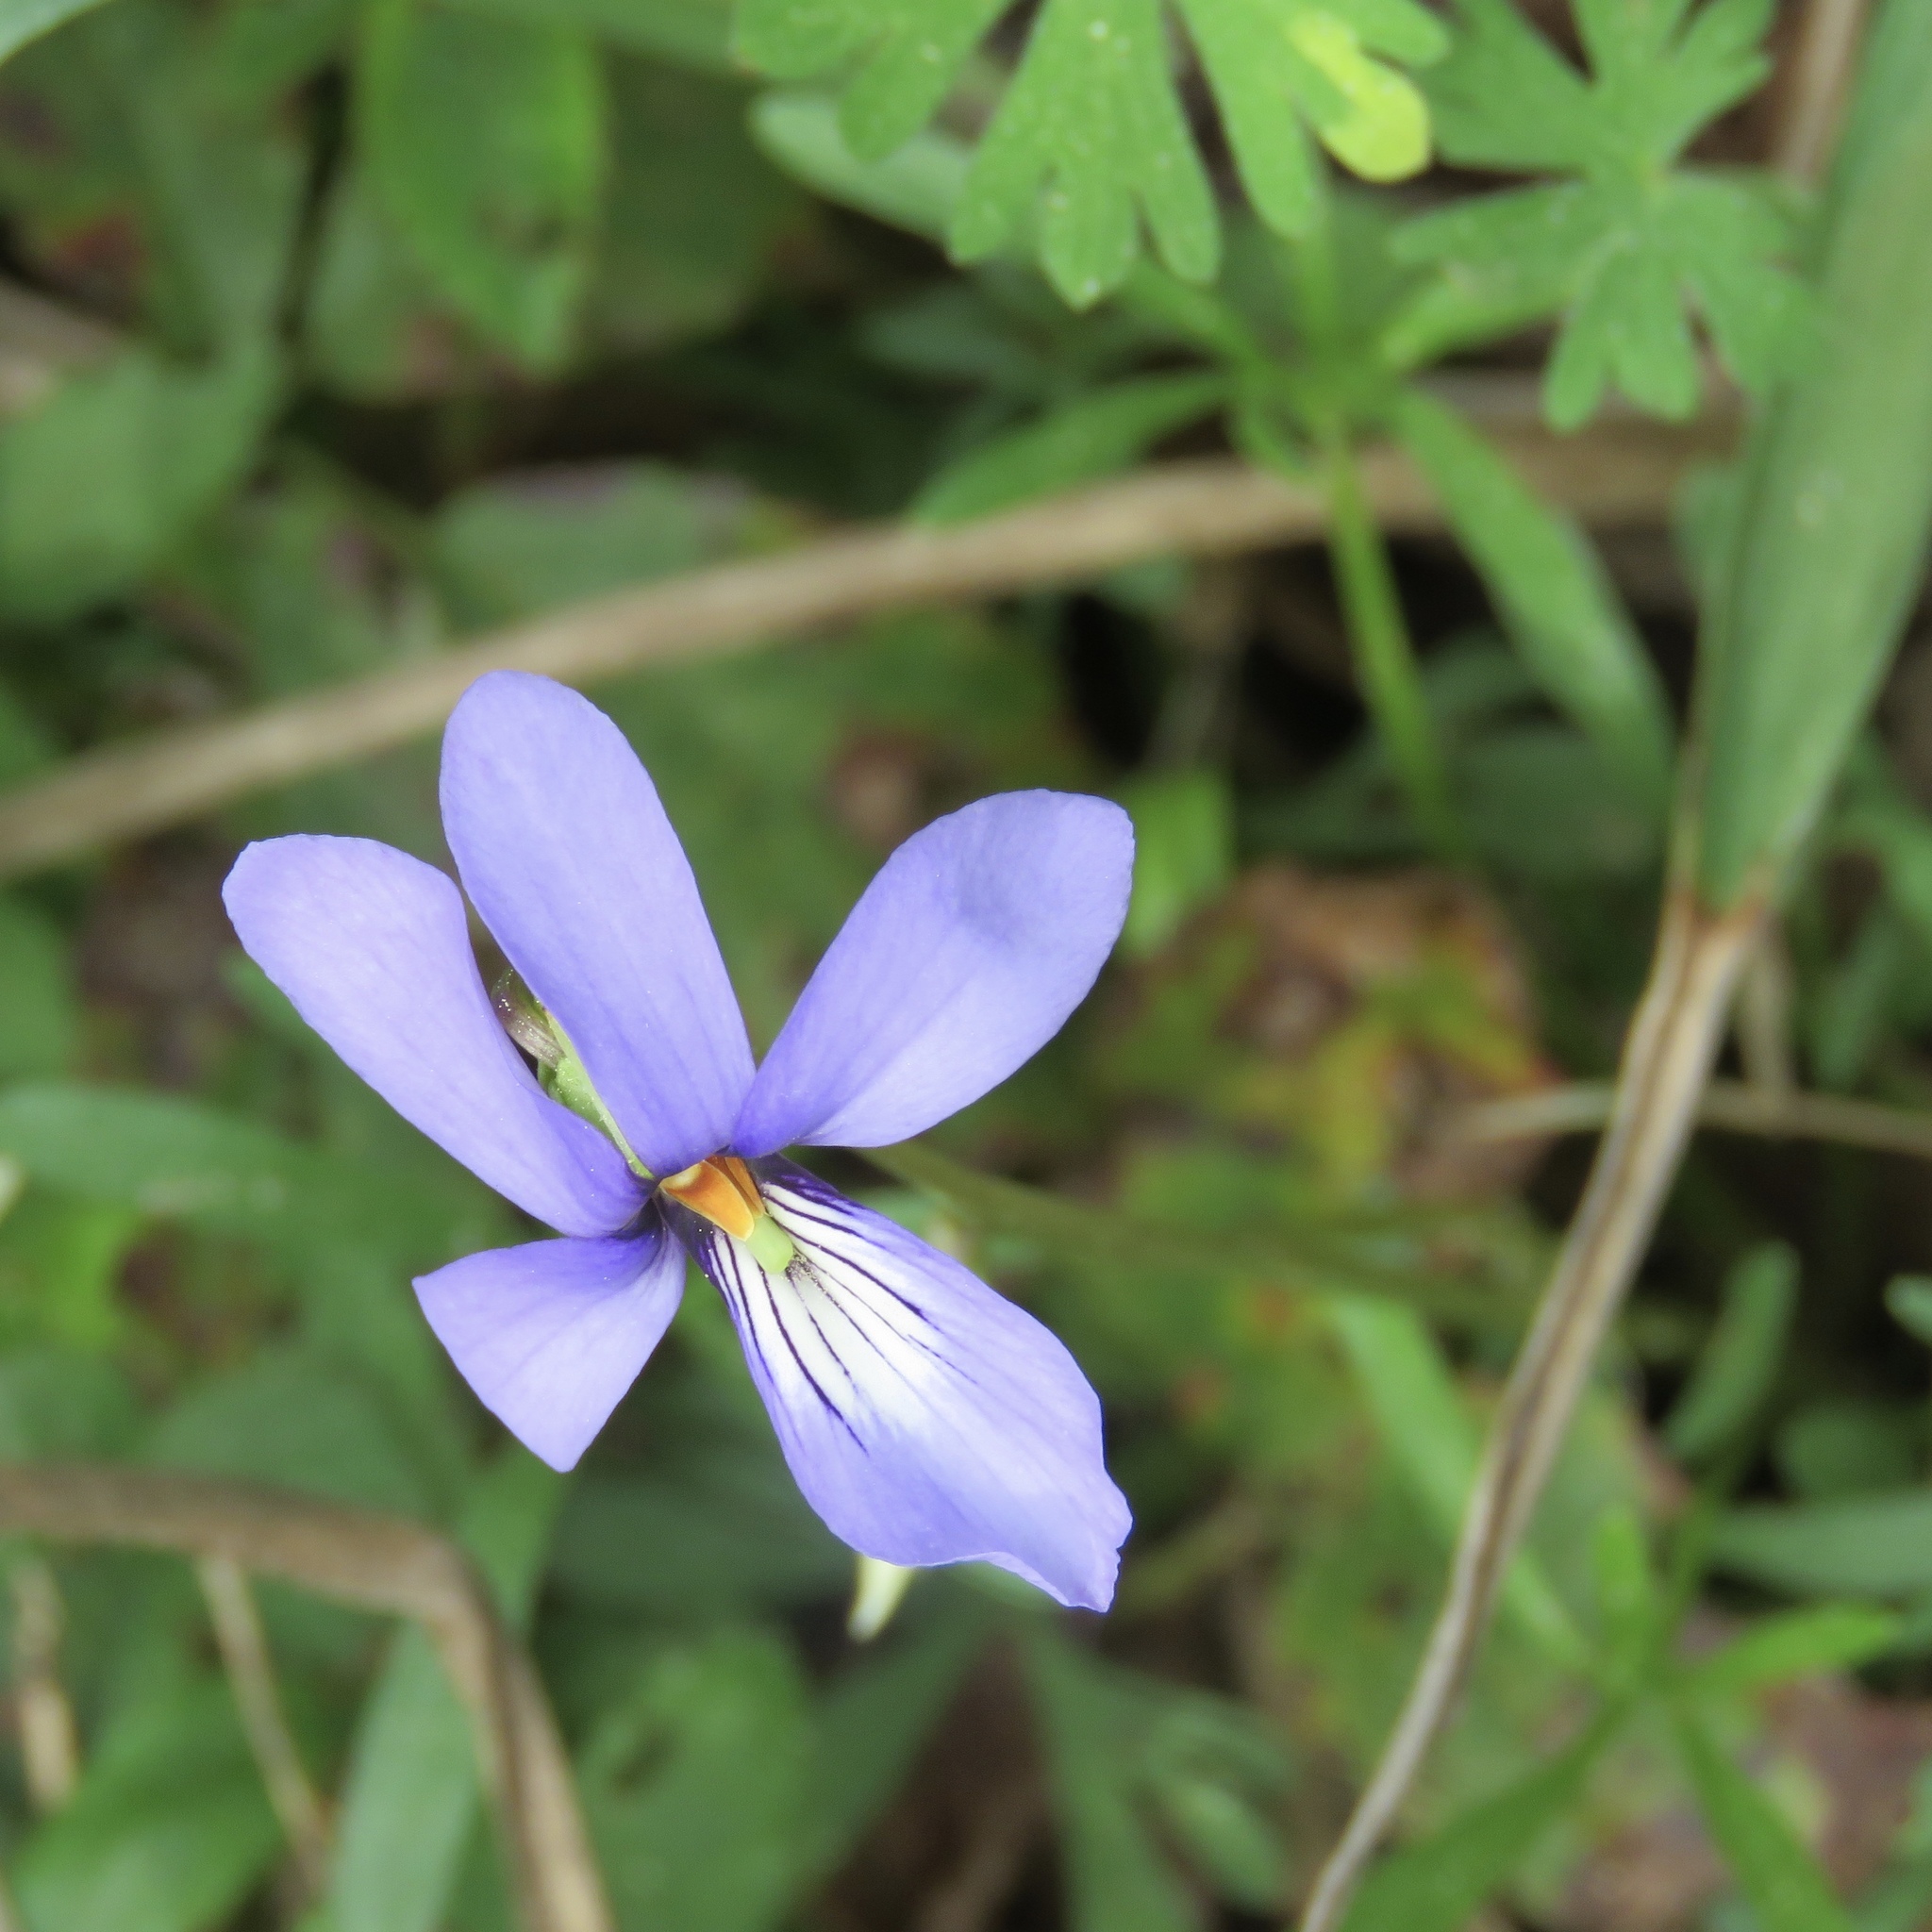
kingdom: Plantae
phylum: Tracheophyta
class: Magnoliopsida
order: Malpighiales
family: Violaceae
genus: Viola
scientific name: Viola pedata
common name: Pansy violet
